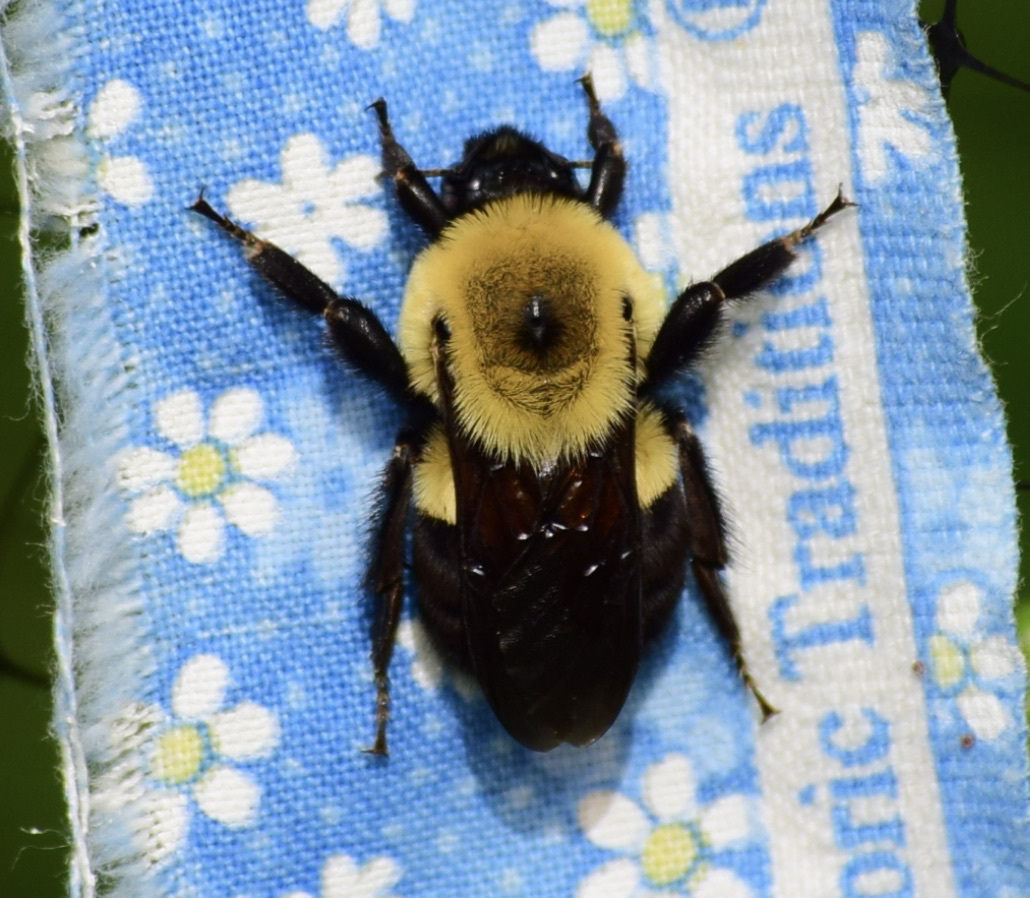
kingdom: Animalia
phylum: Arthropoda
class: Insecta
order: Hymenoptera
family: Apidae
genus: Bombus
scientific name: Bombus griseocollis
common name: Brown-belted bumble bee
